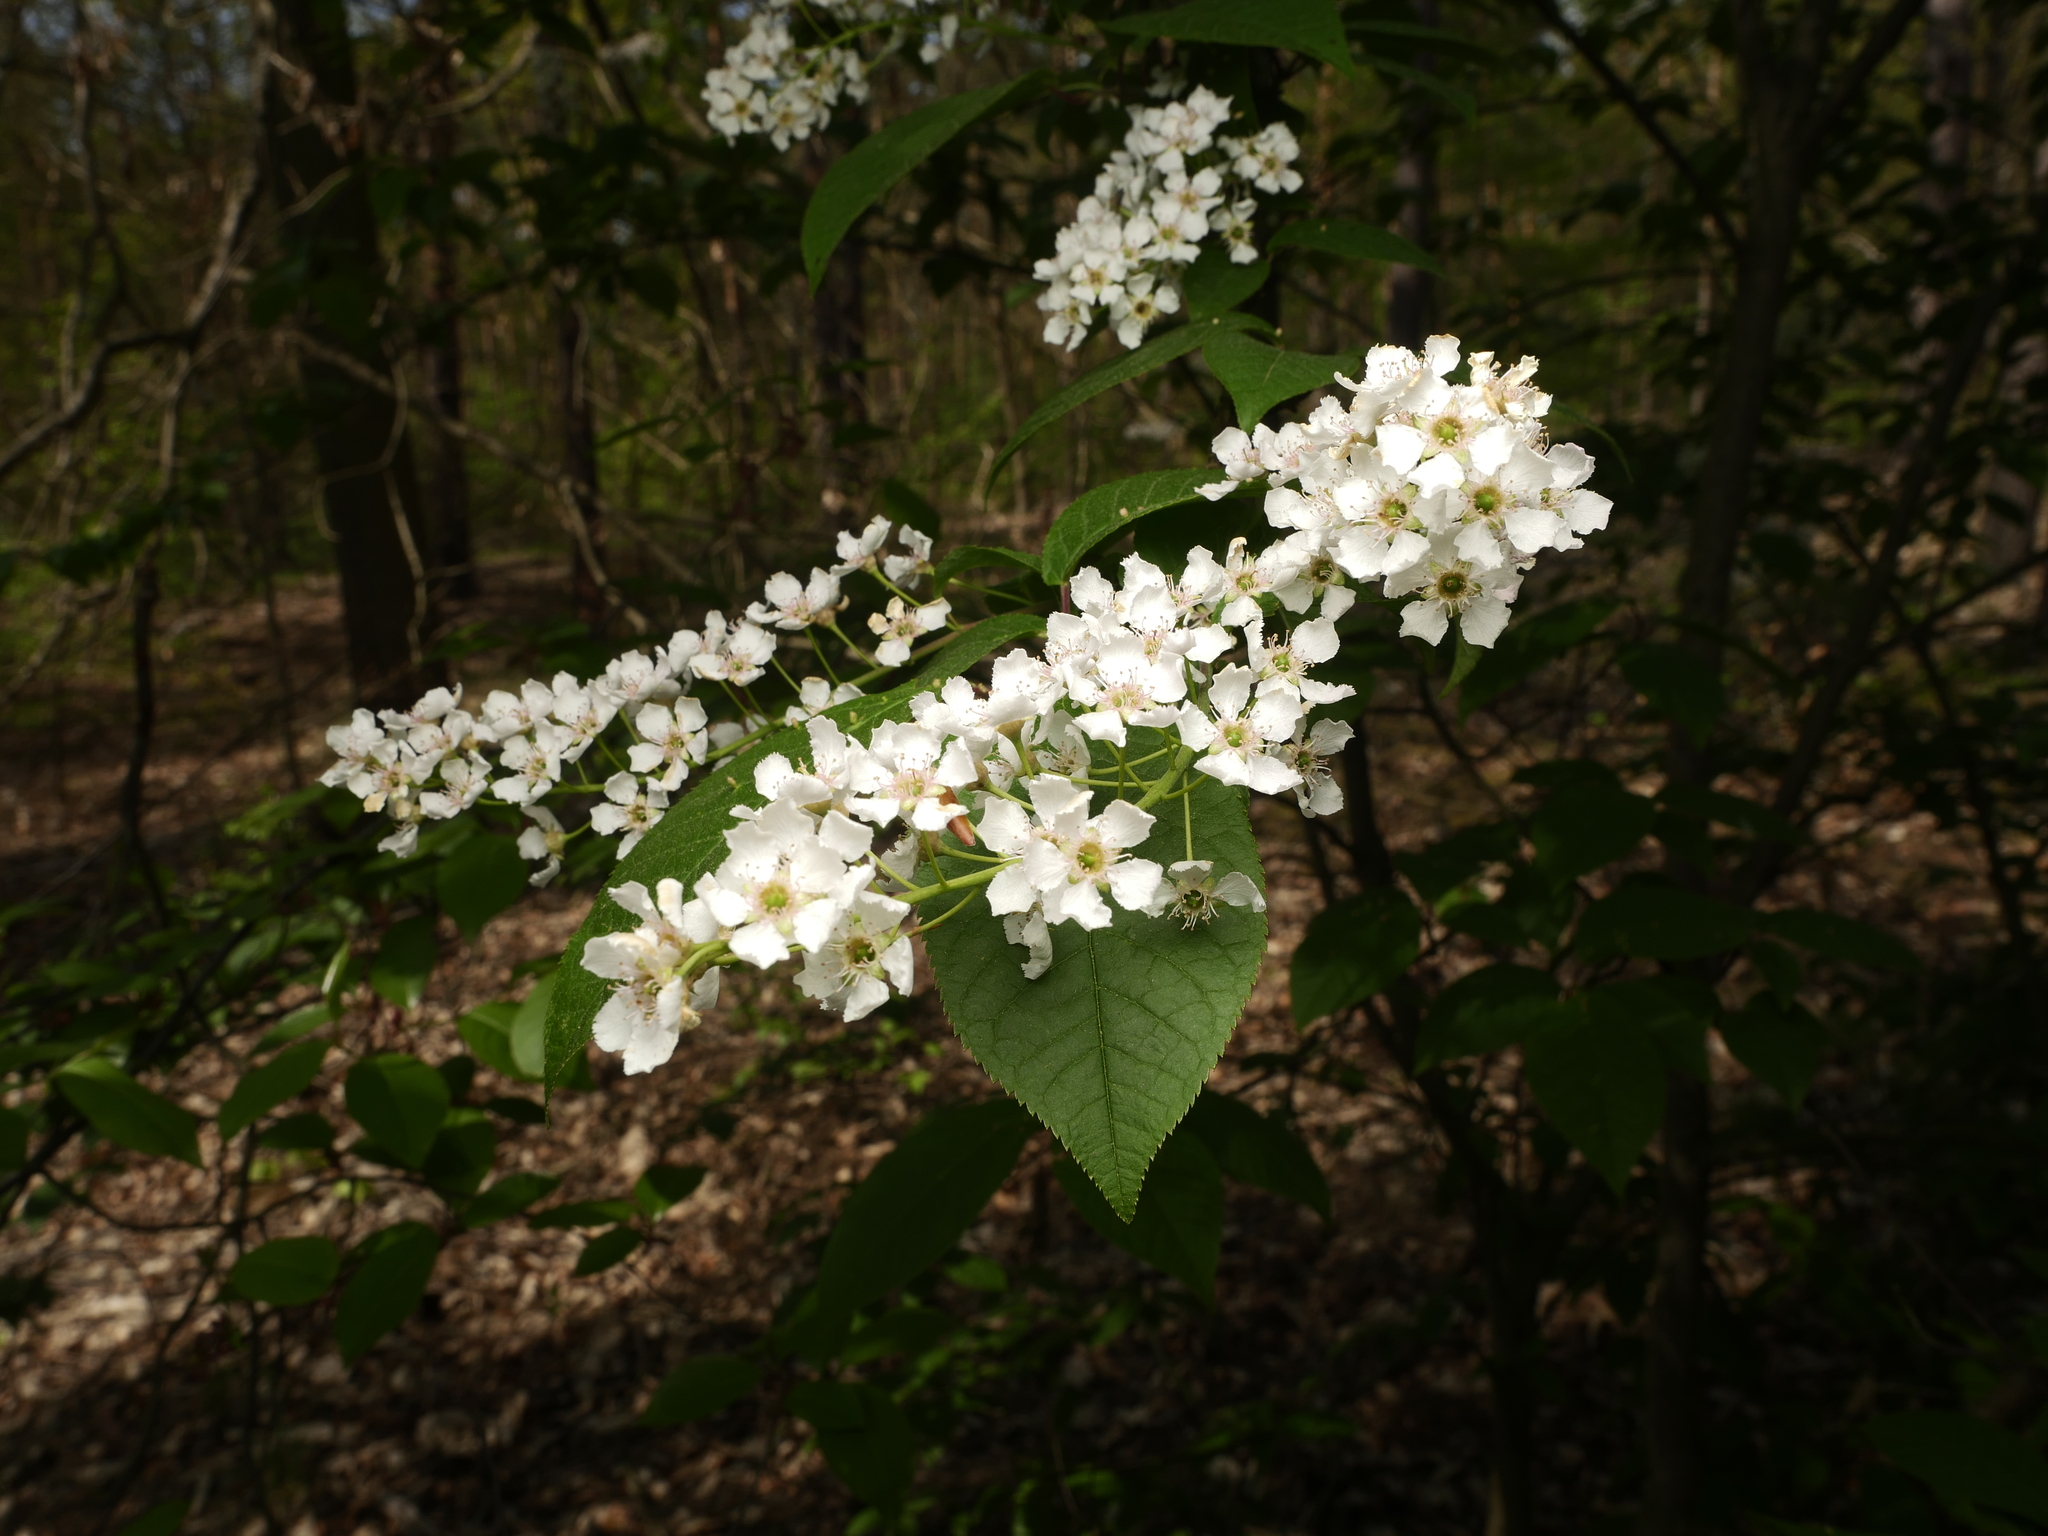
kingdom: Plantae
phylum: Tracheophyta
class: Magnoliopsida
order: Rosales
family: Rosaceae
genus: Prunus
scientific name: Prunus padus
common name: Bird cherry
